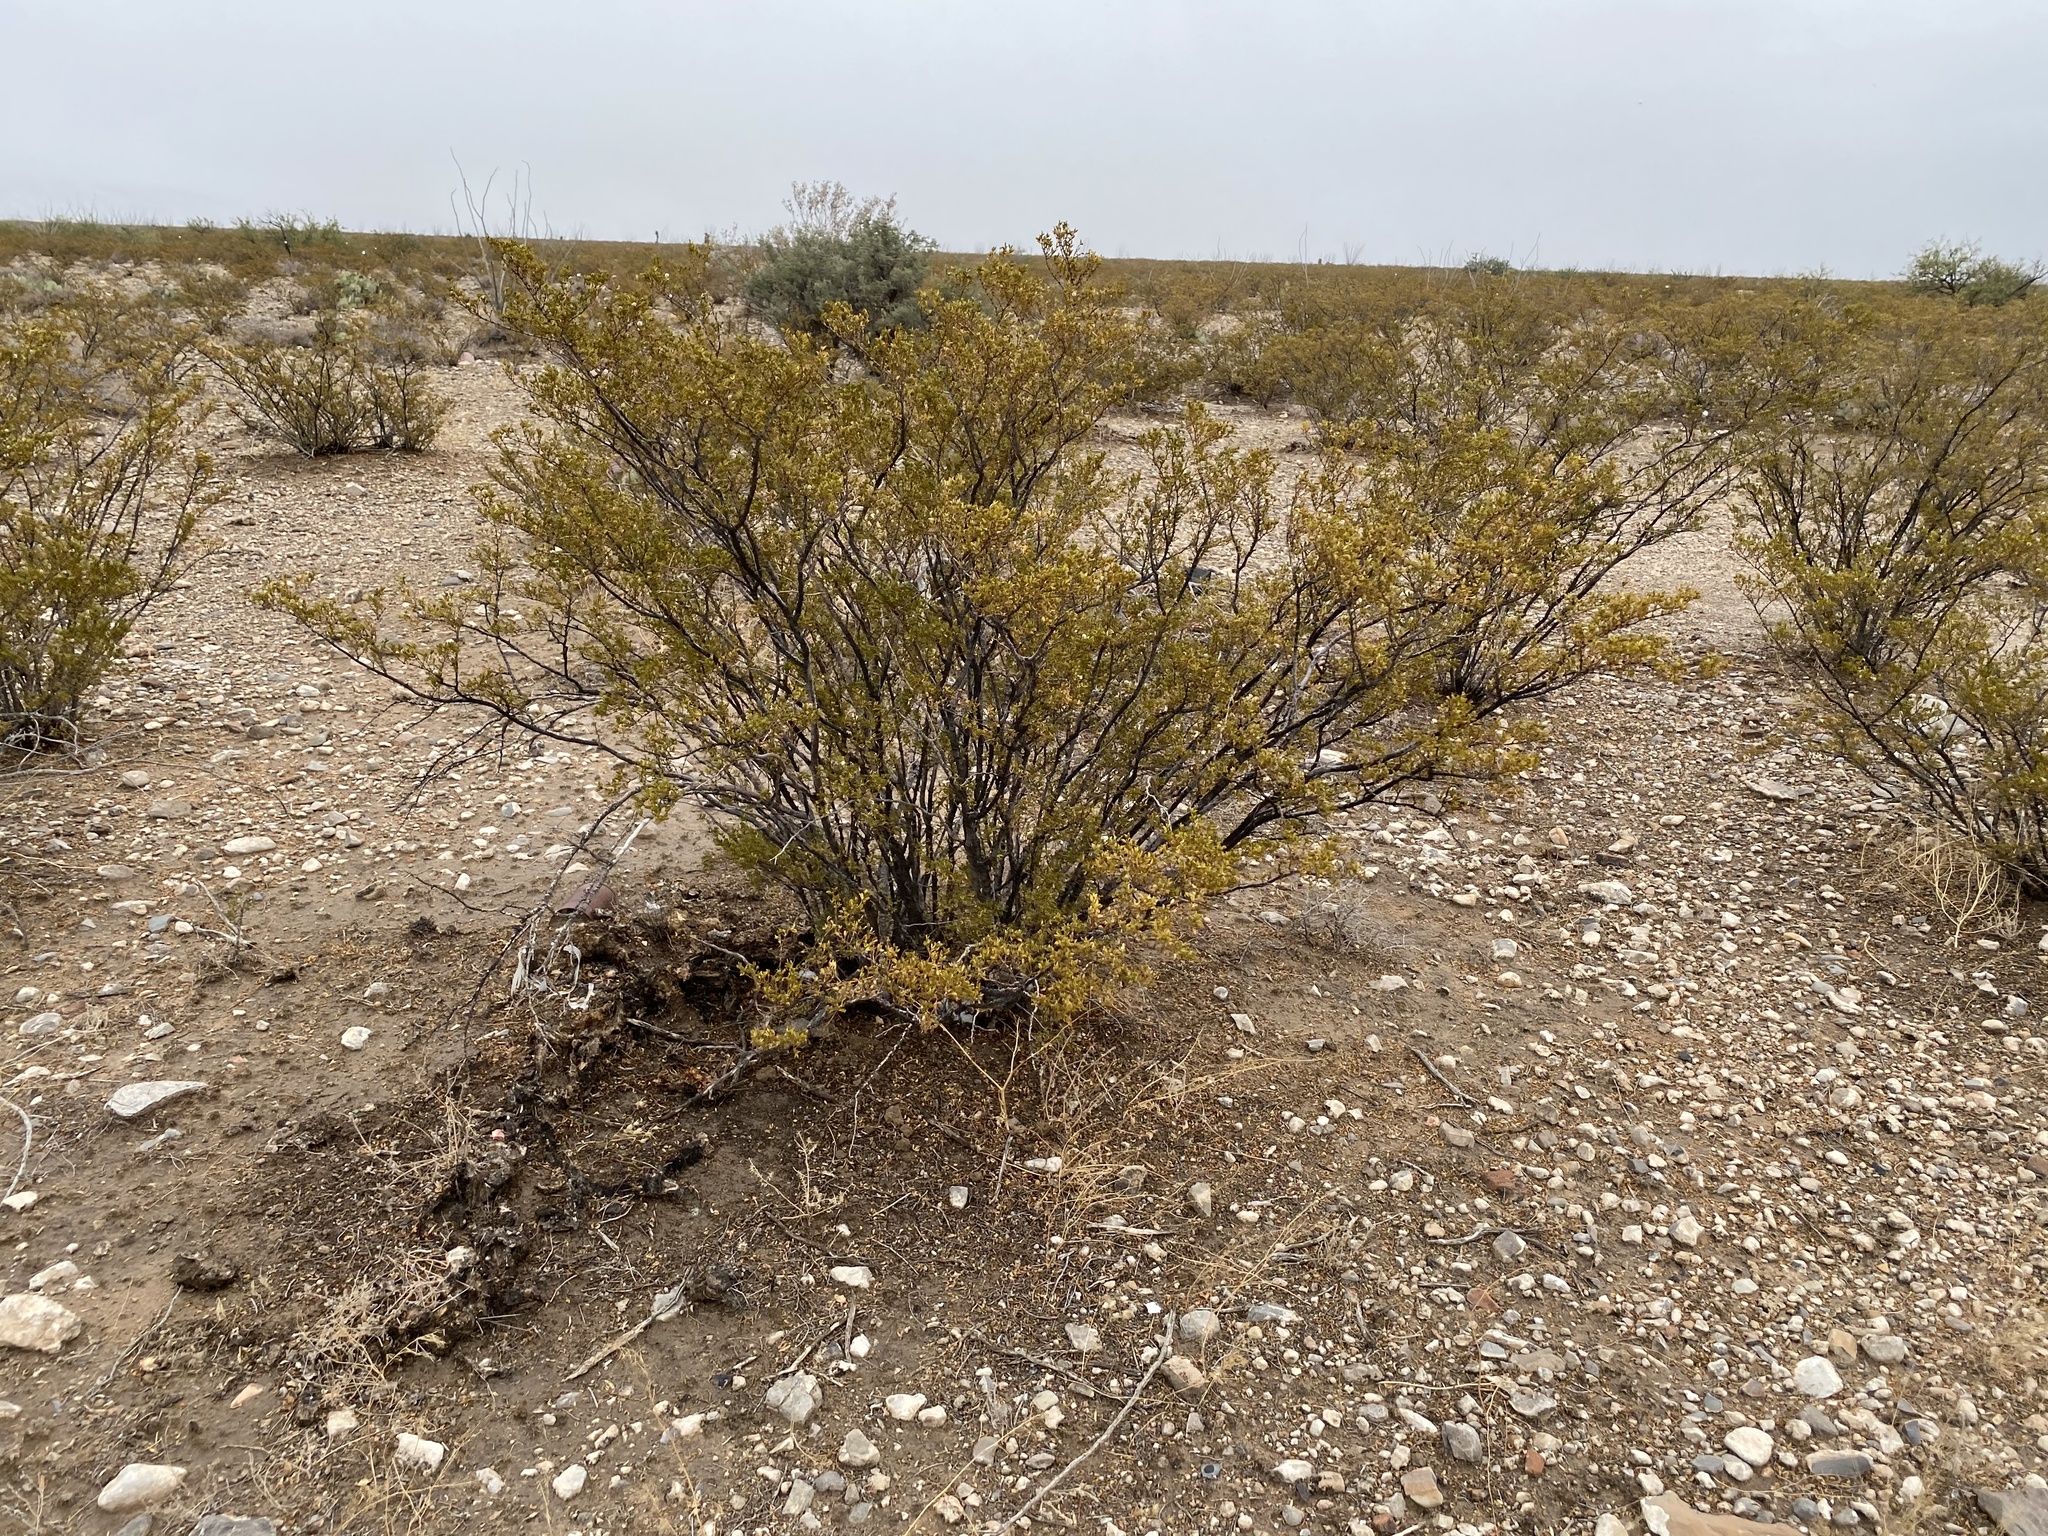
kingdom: Plantae
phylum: Tracheophyta
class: Magnoliopsida
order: Zygophyllales
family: Zygophyllaceae
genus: Larrea
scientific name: Larrea tridentata
